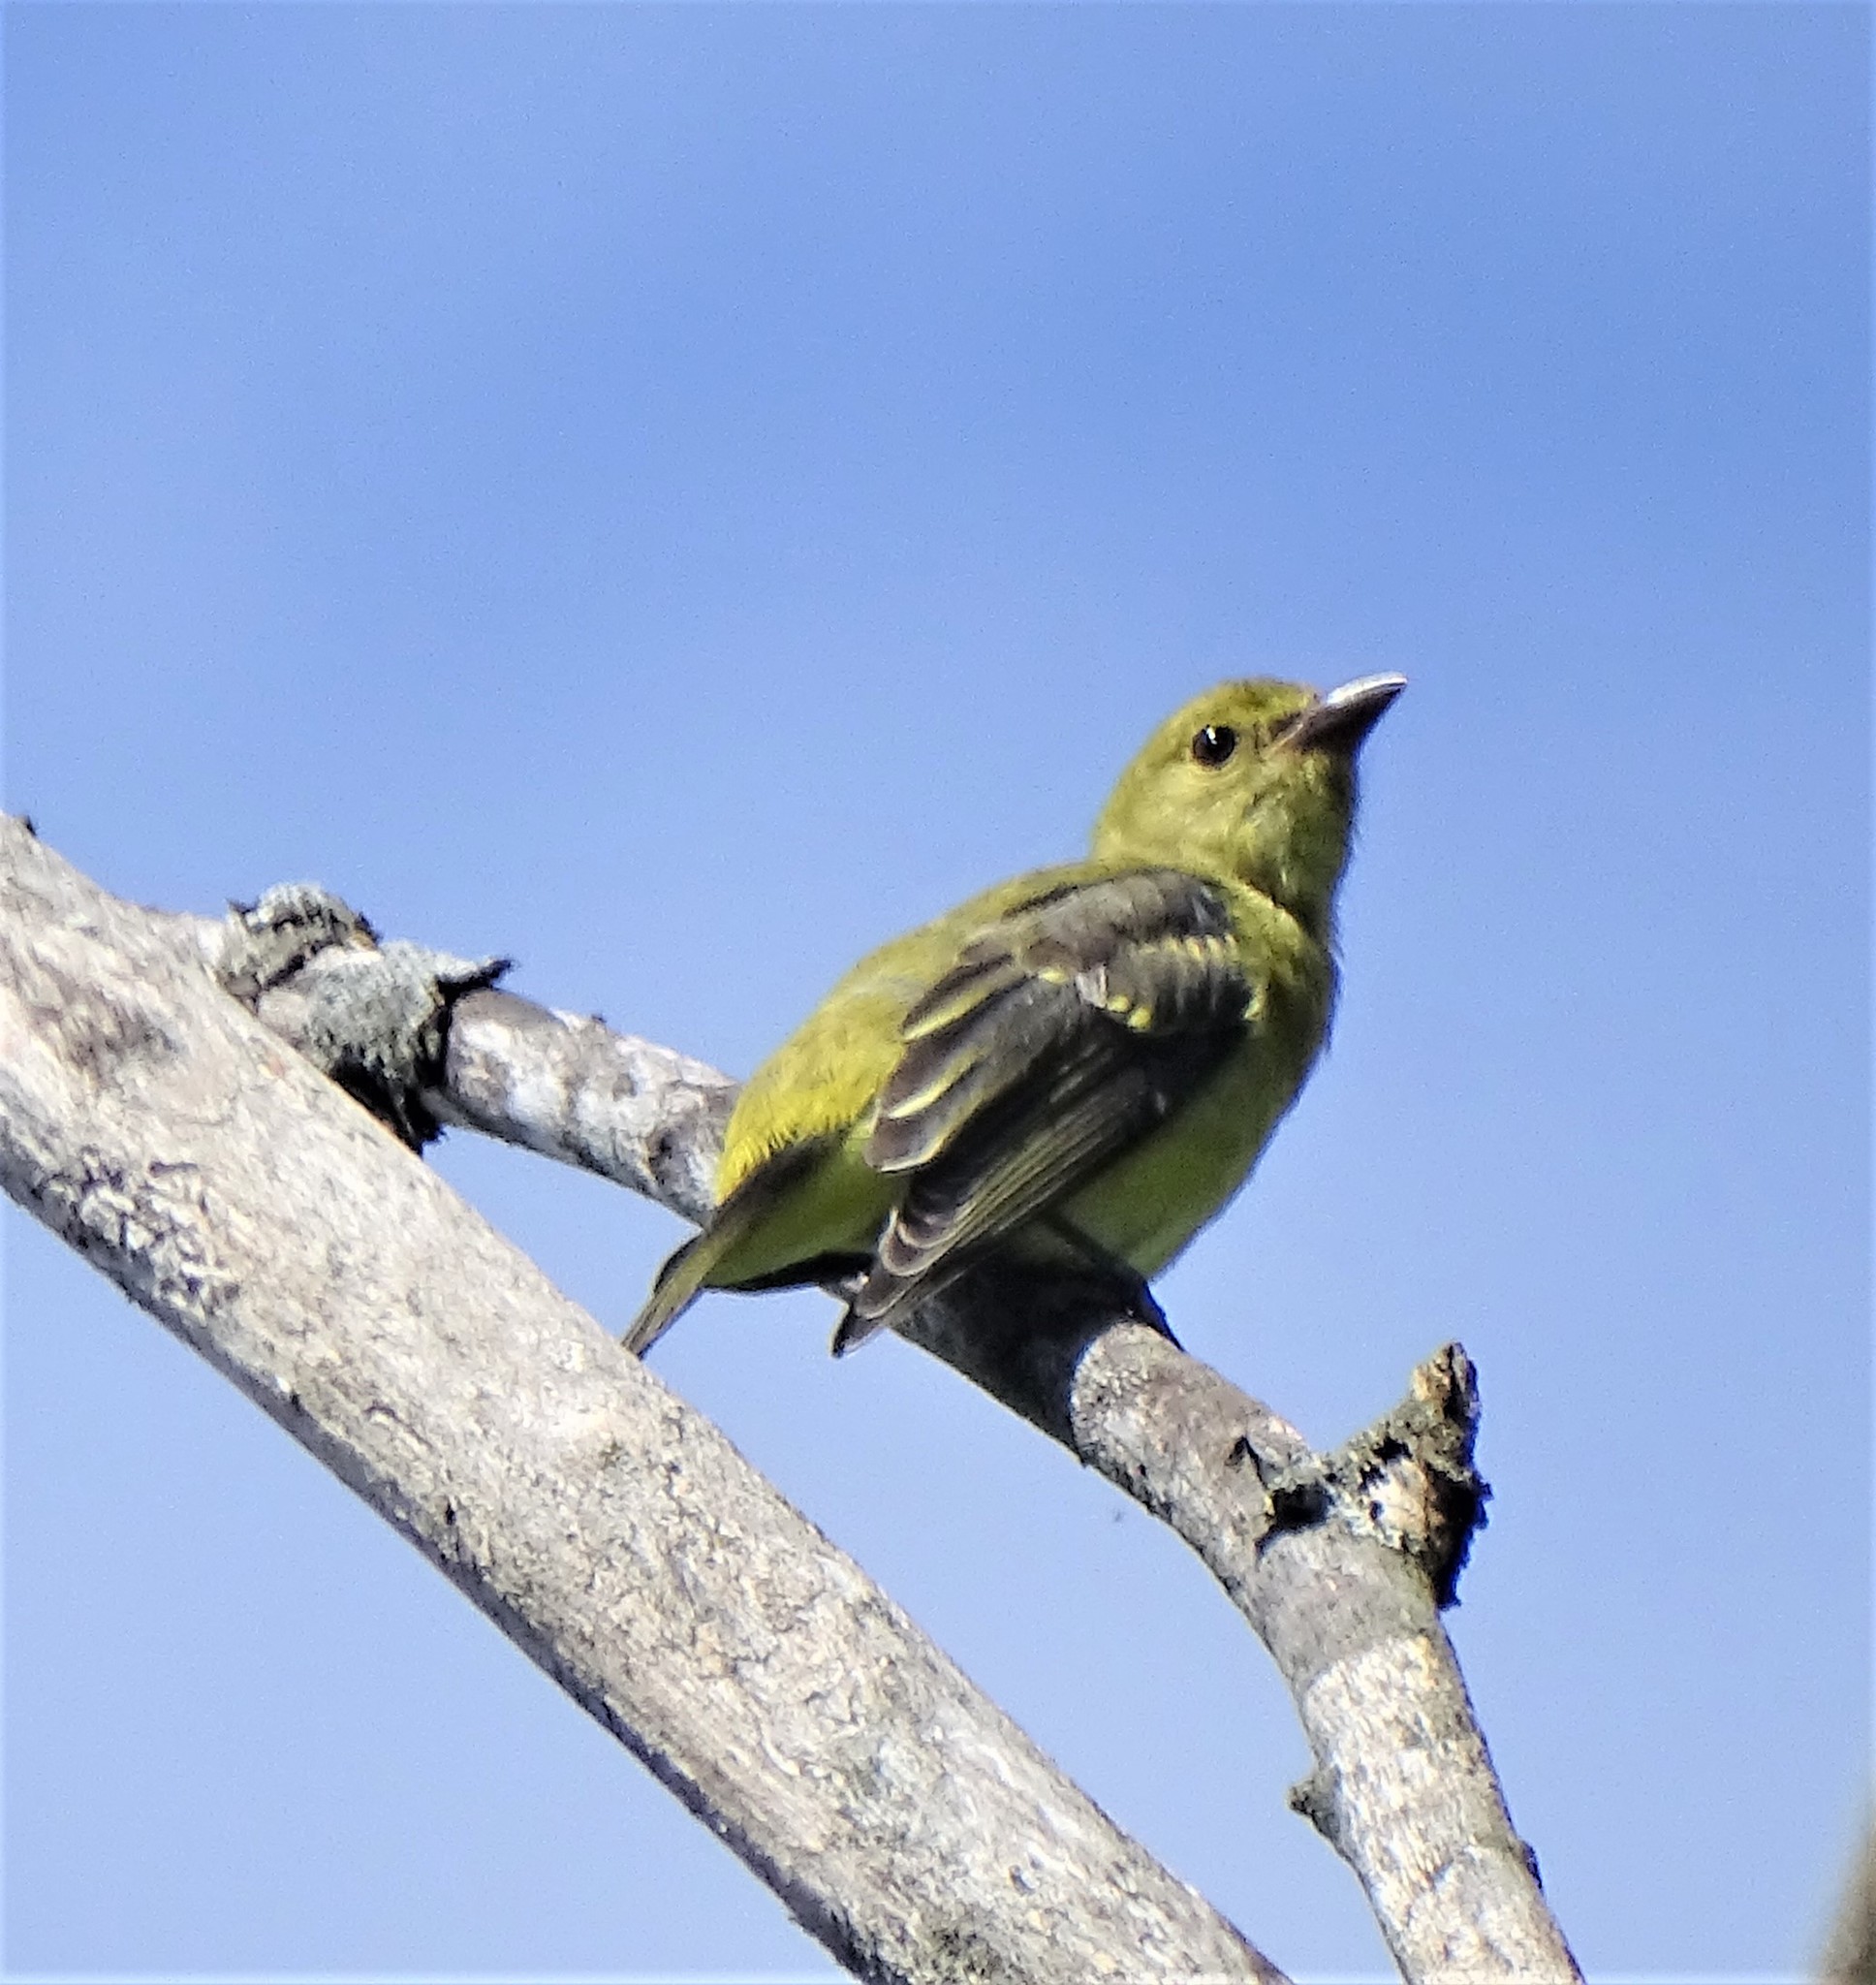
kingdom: Animalia
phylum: Chordata
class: Aves
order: Passeriformes
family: Cardinalidae
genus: Piranga
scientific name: Piranga olivacea
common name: Scarlet tanager
